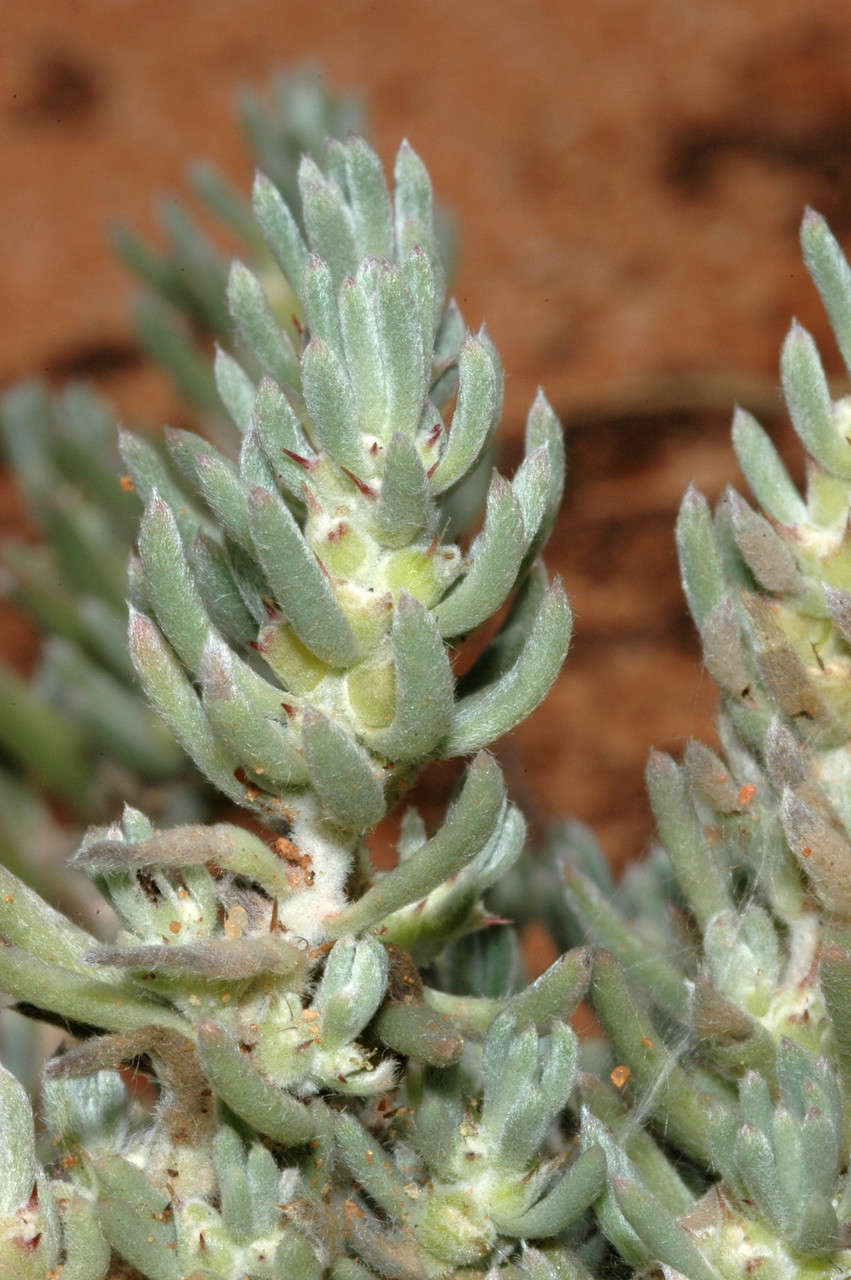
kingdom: Plantae
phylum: Tracheophyta
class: Magnoliopsida
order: Caryophyllales
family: Amaranthaceae
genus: Sclerolaena
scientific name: Sclerolaena diacantha
